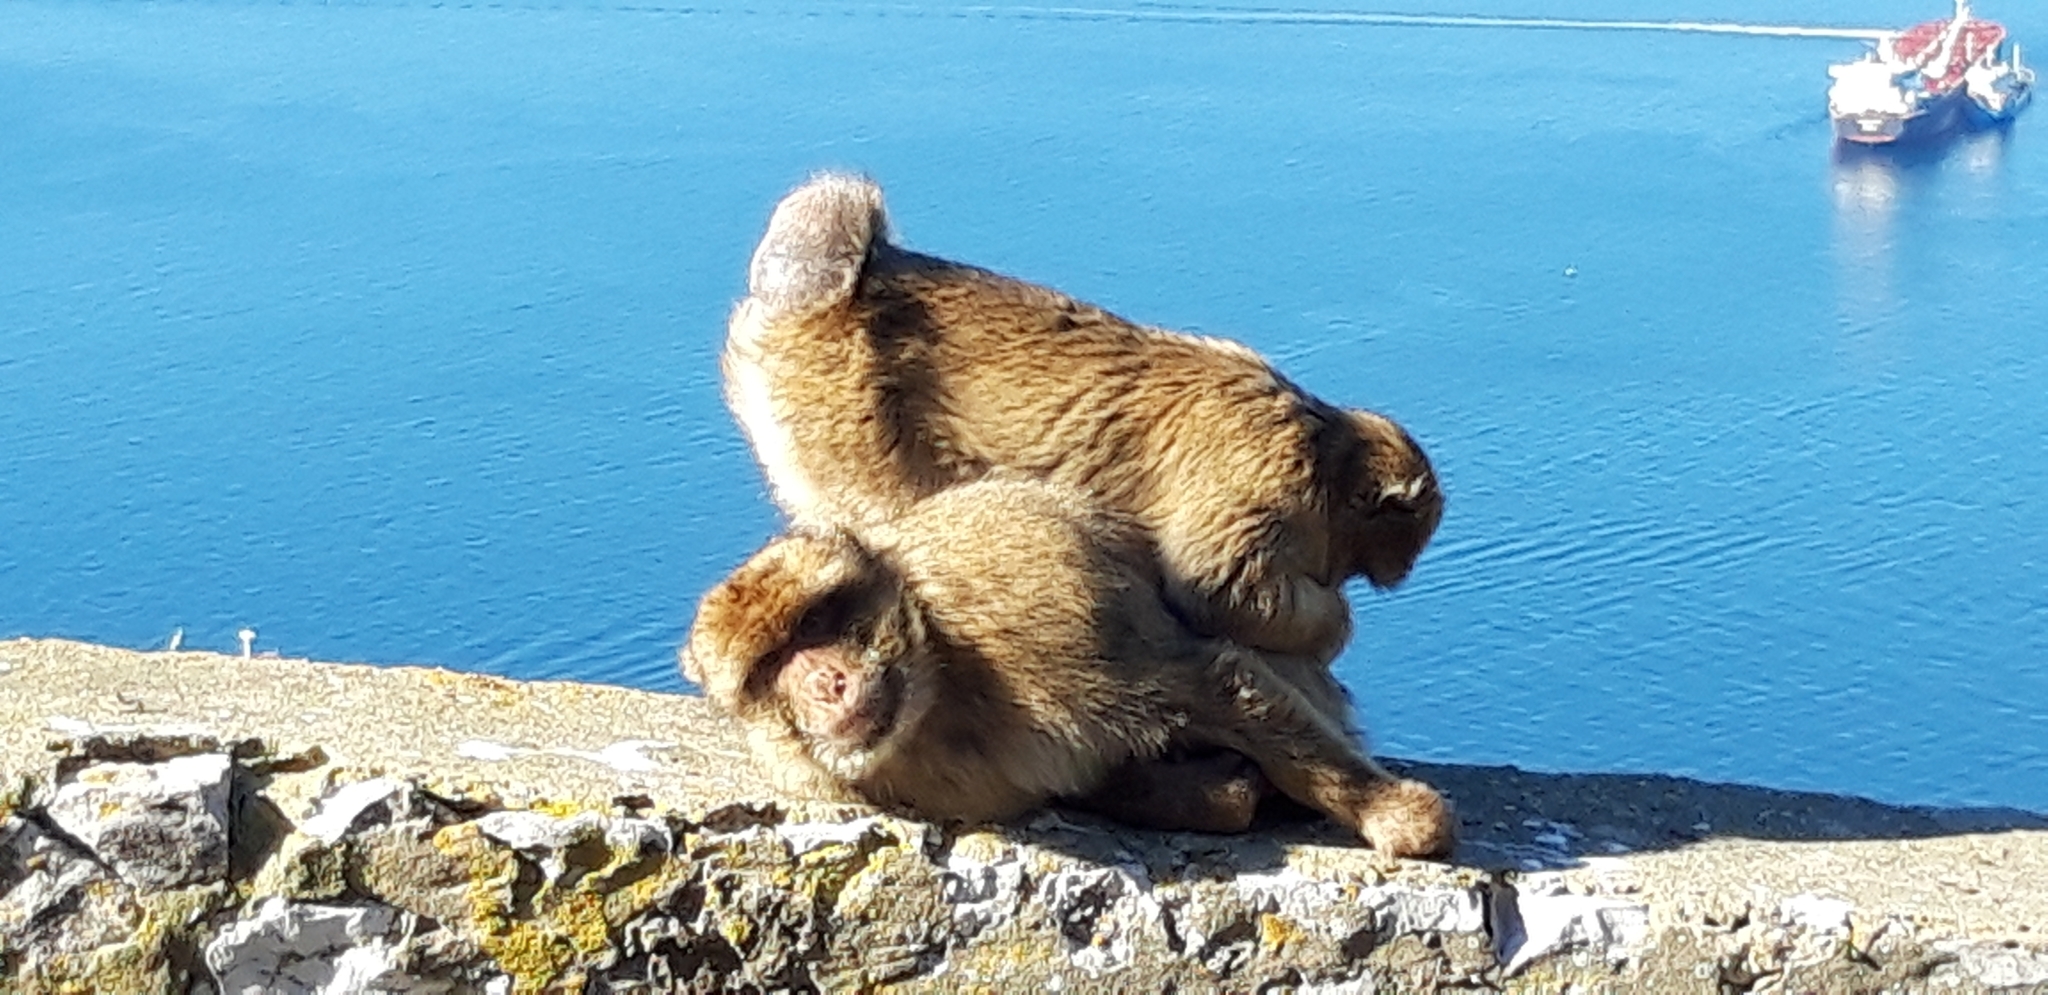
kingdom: Animalia
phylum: Chordata
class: Mammalia
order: Primates
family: Cercopithecidae
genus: Macaca
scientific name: Macaca sylvanus
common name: Barbary macaque
